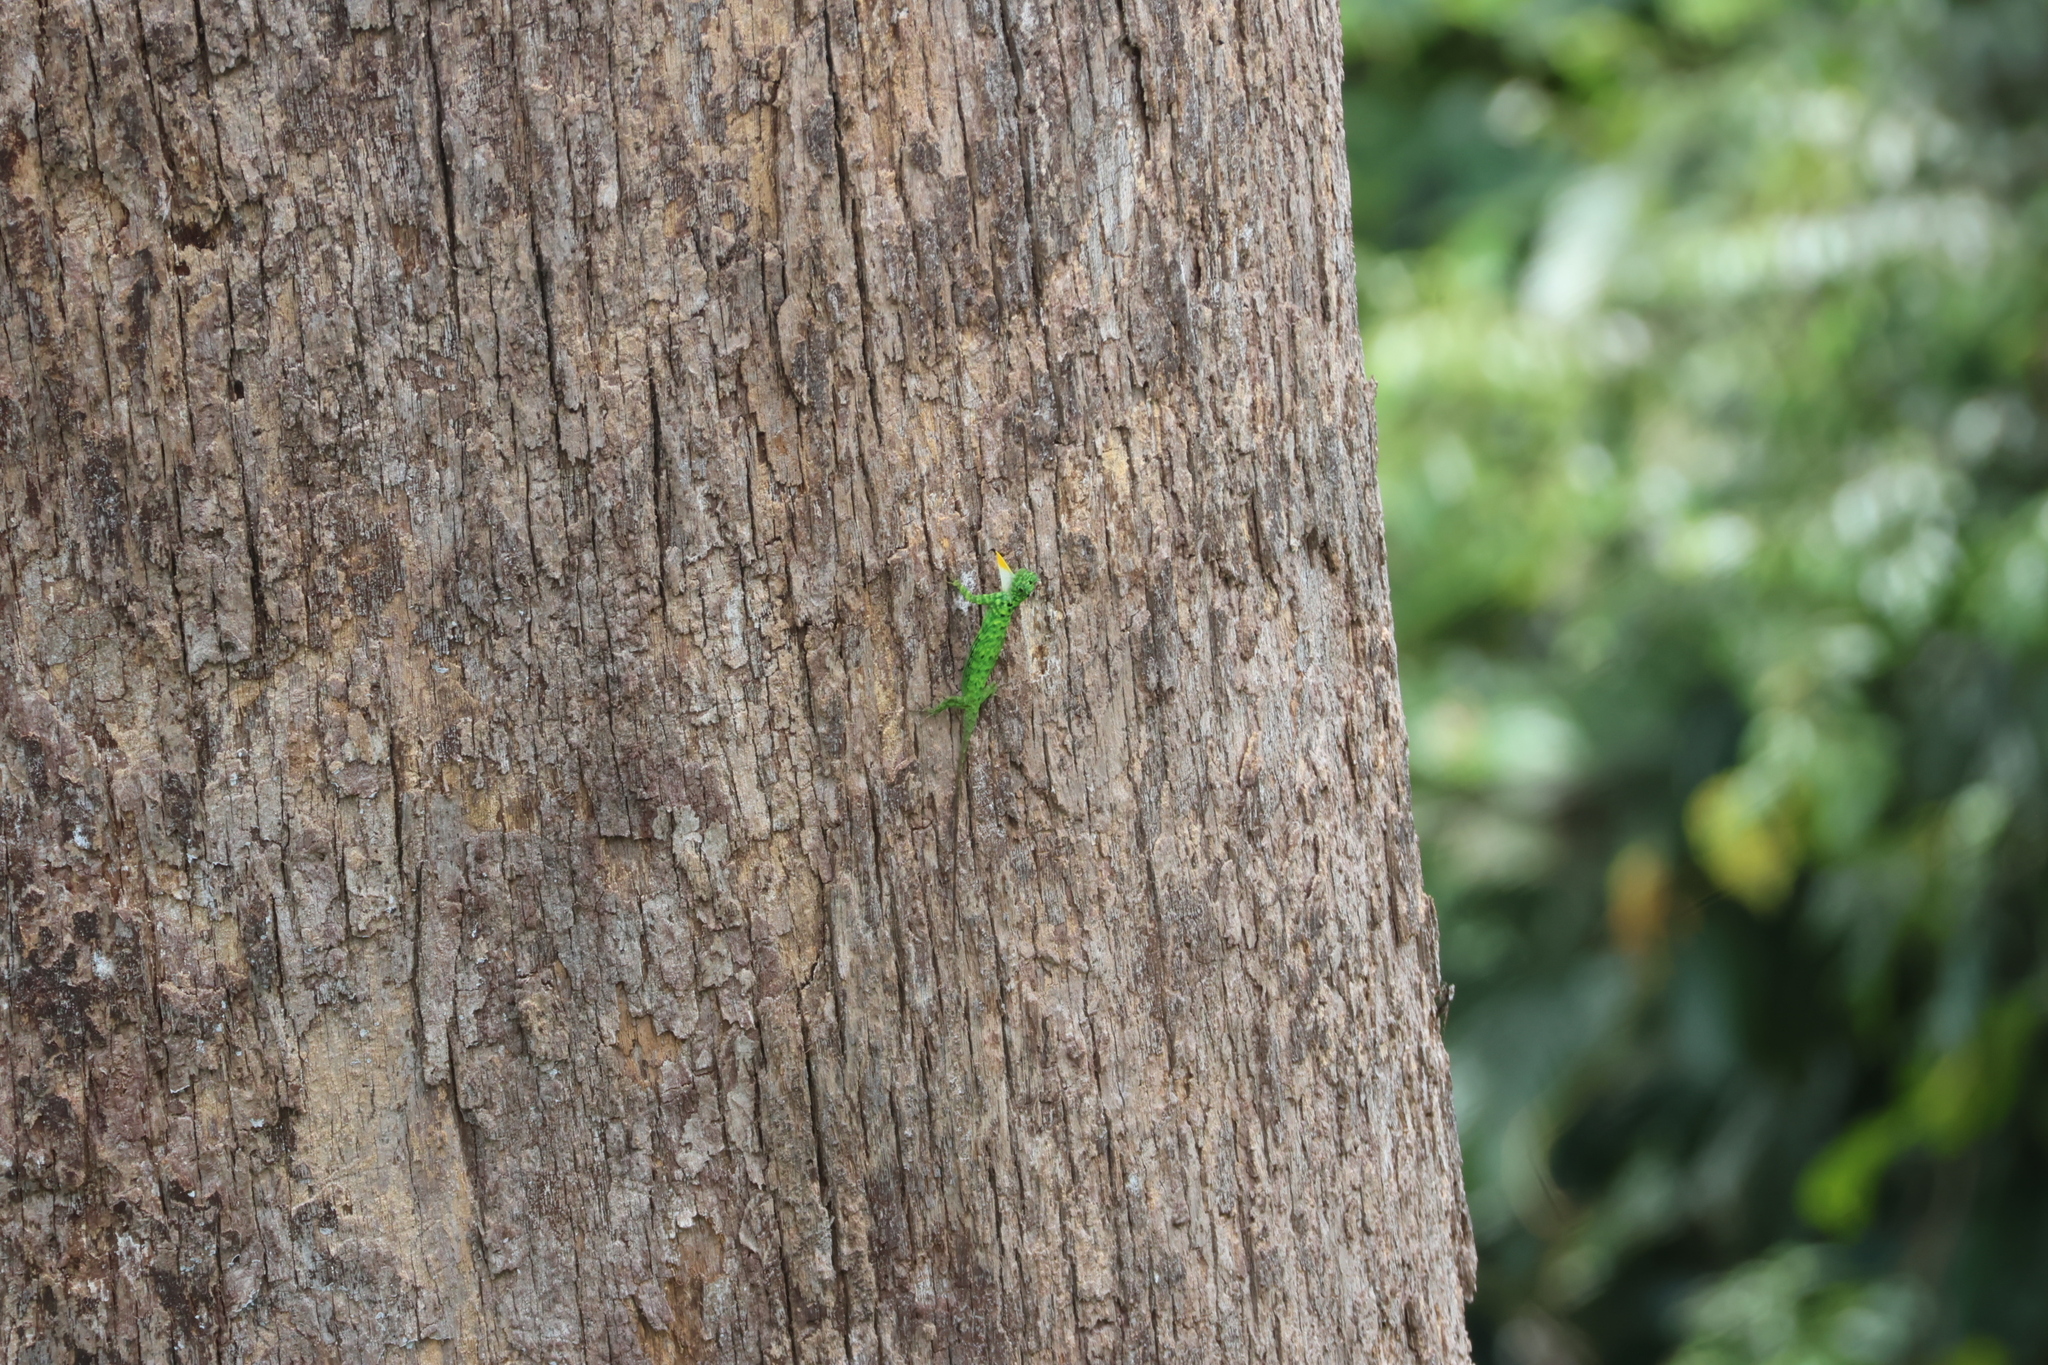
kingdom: Animalia
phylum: Chordata
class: Squamata
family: Agamidae
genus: Draco
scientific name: Draco cornutus
